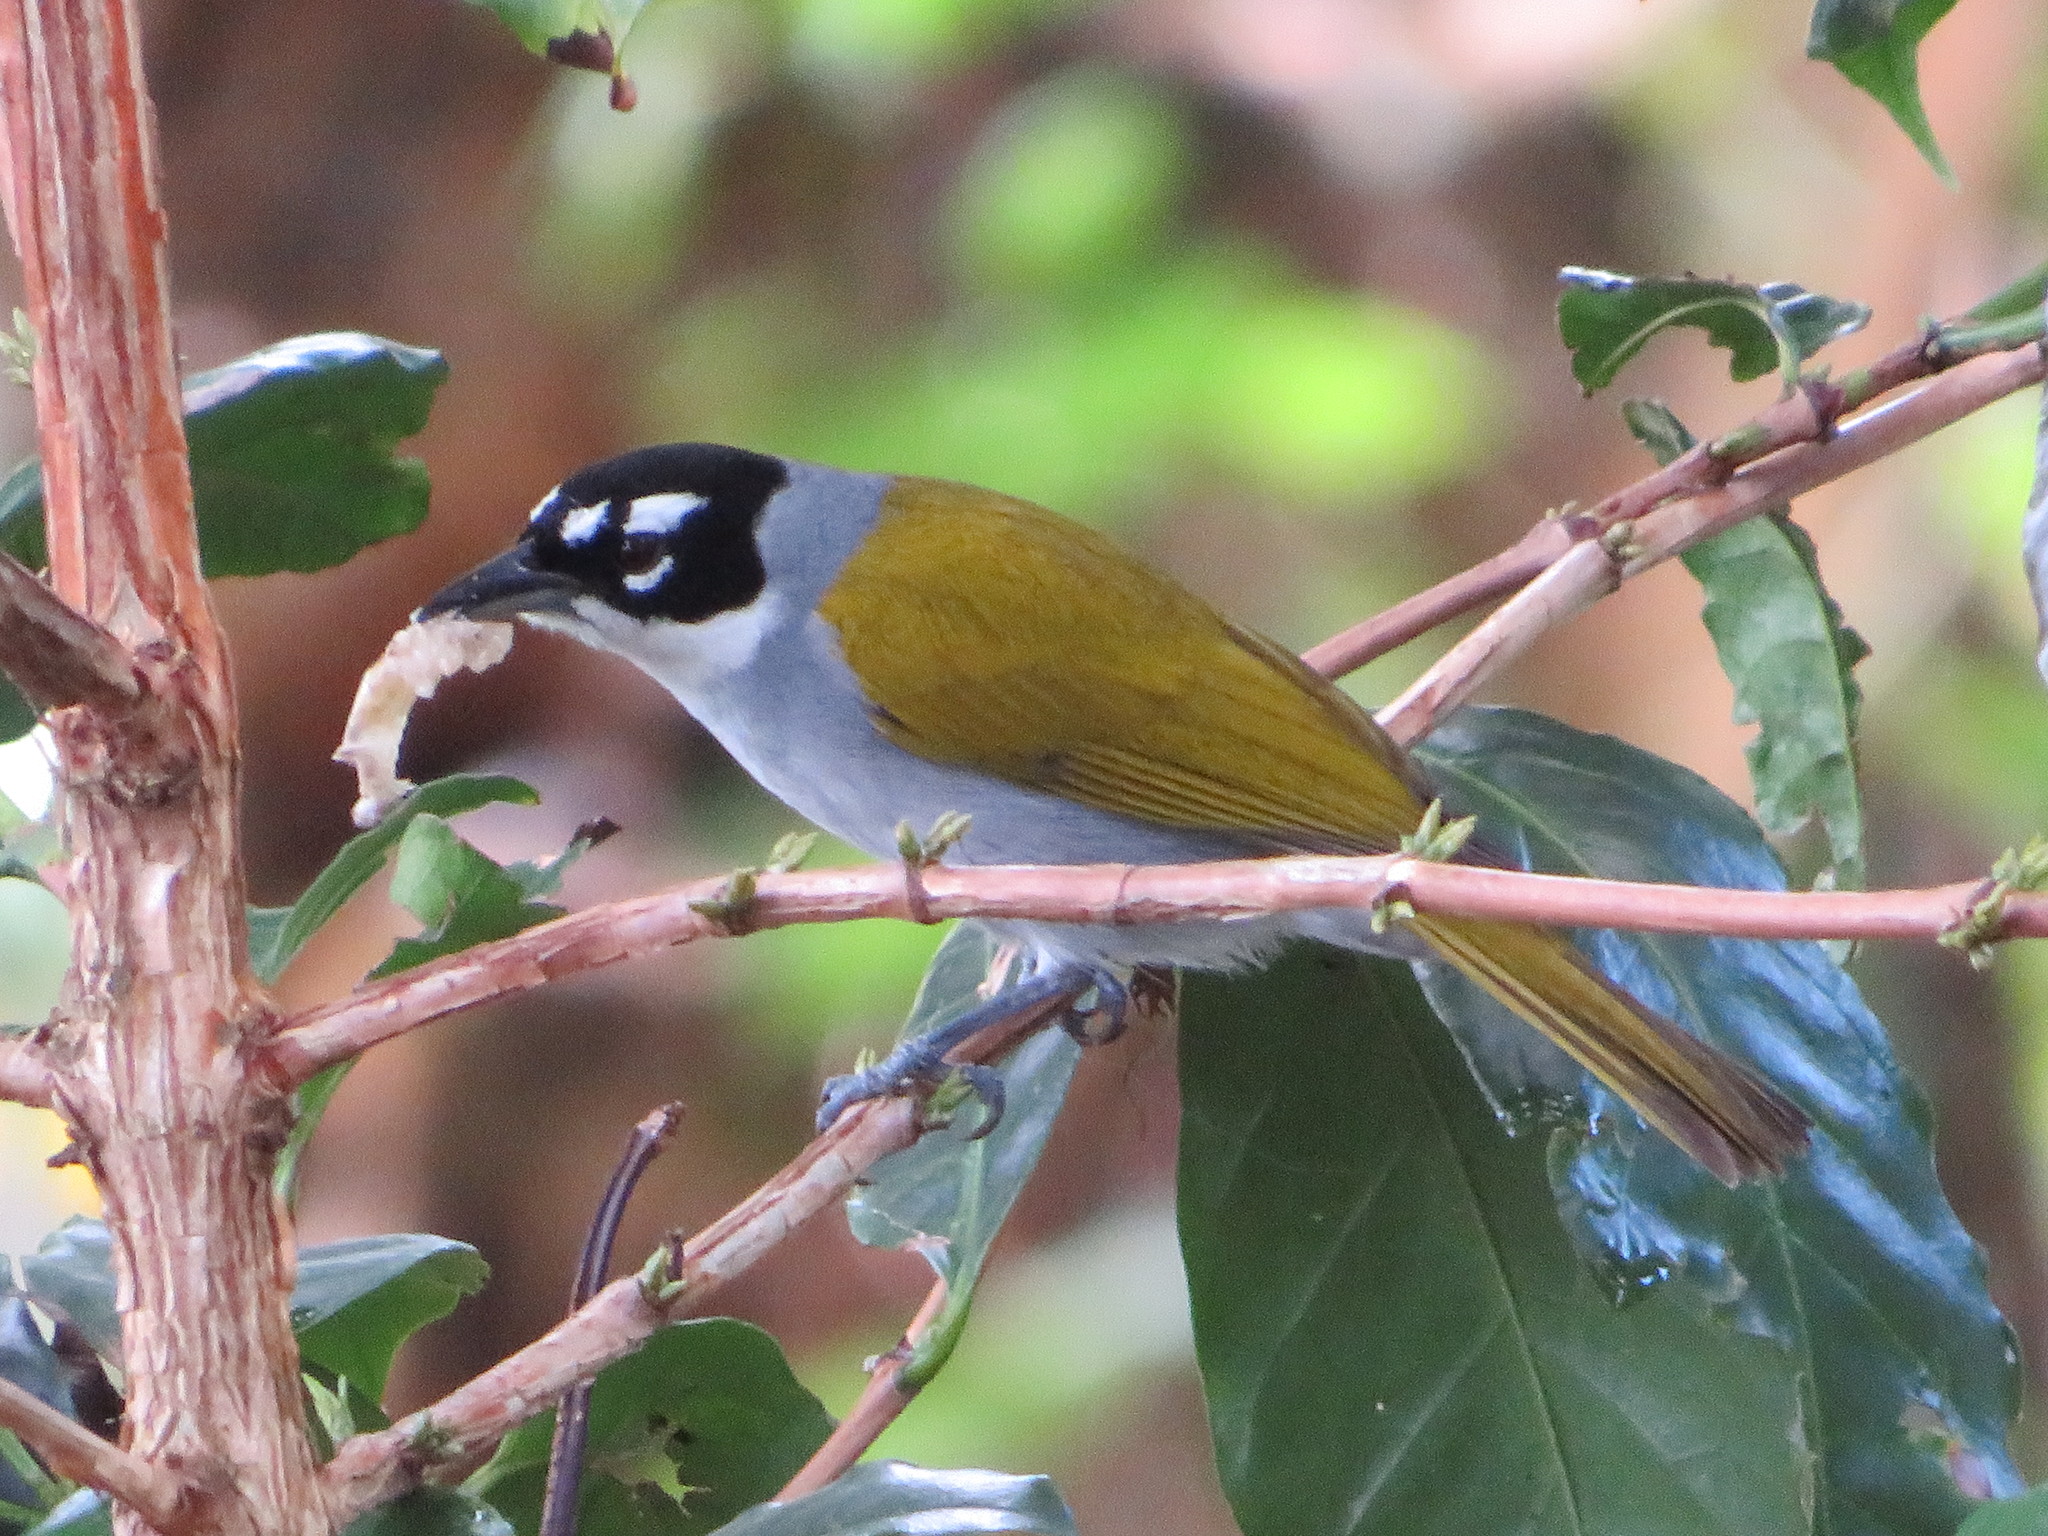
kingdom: Animalia
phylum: Chordata
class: Aves
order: Passeriformes
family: Phaenicophilidae
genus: Phaenicophilus
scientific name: Phaenicophilus palmarum
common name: Black-crowned palm-tanager
